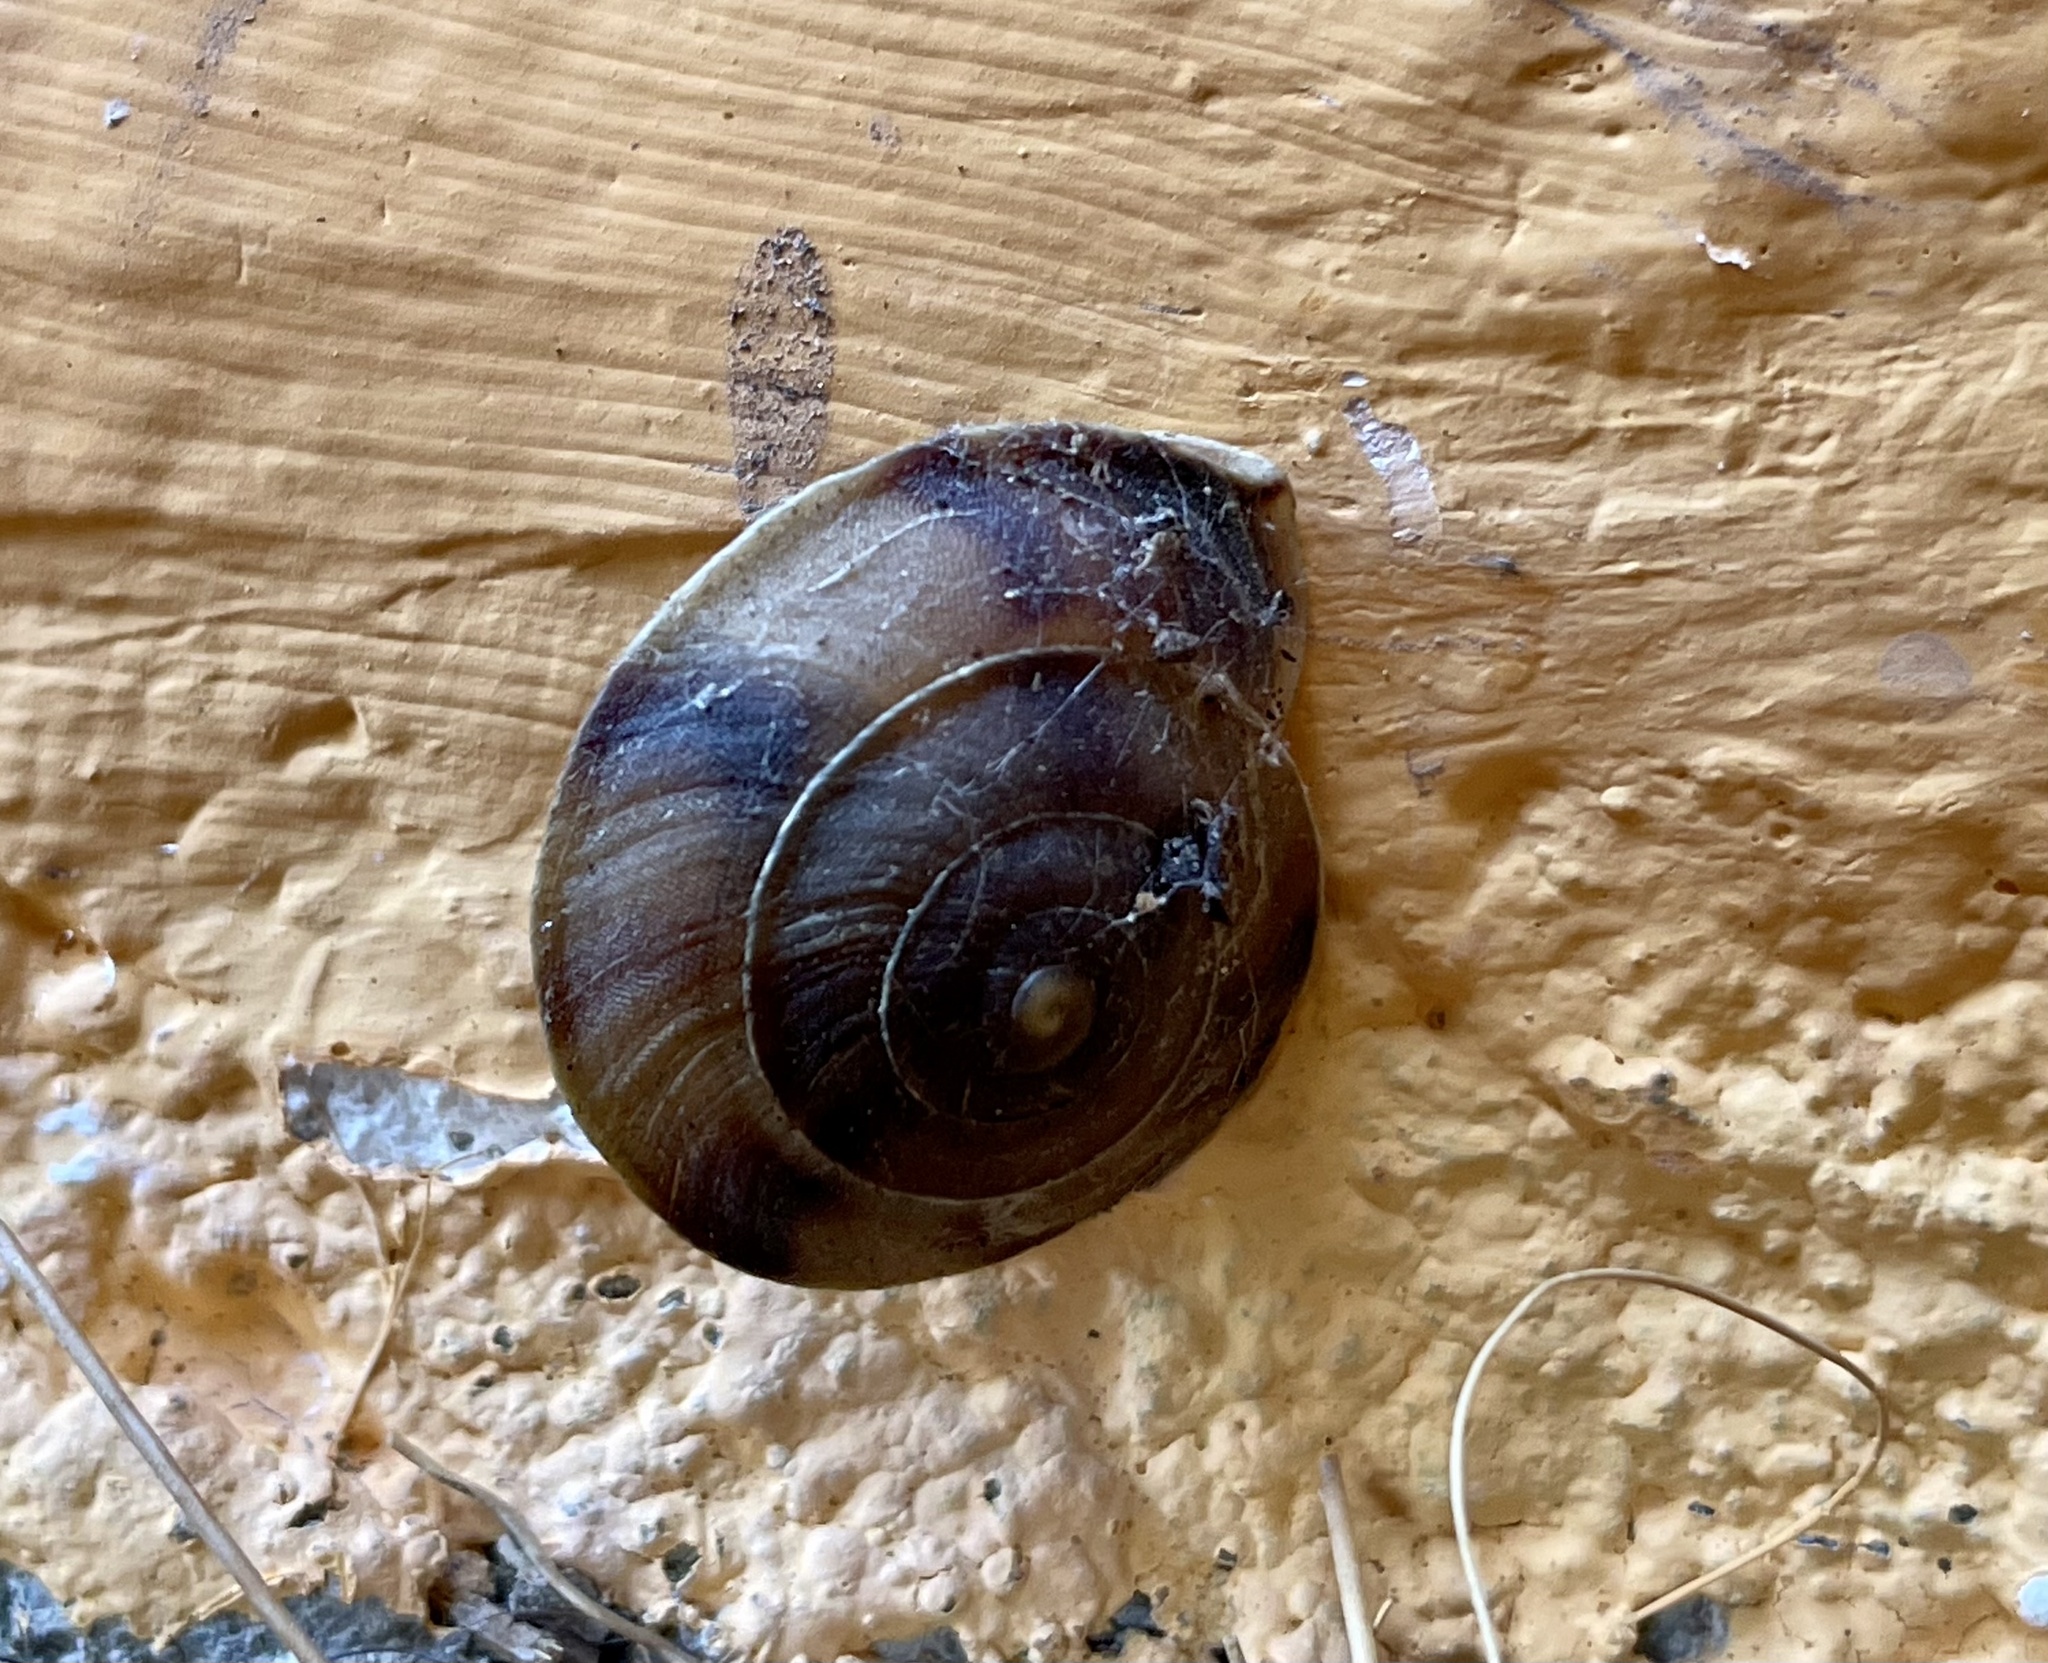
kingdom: Animalia
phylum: Mollusca
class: Gastropoda
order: Stylommatophora
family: Helicidae
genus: Helicigona
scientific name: Helicigona lapicida
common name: Lapidary snail
